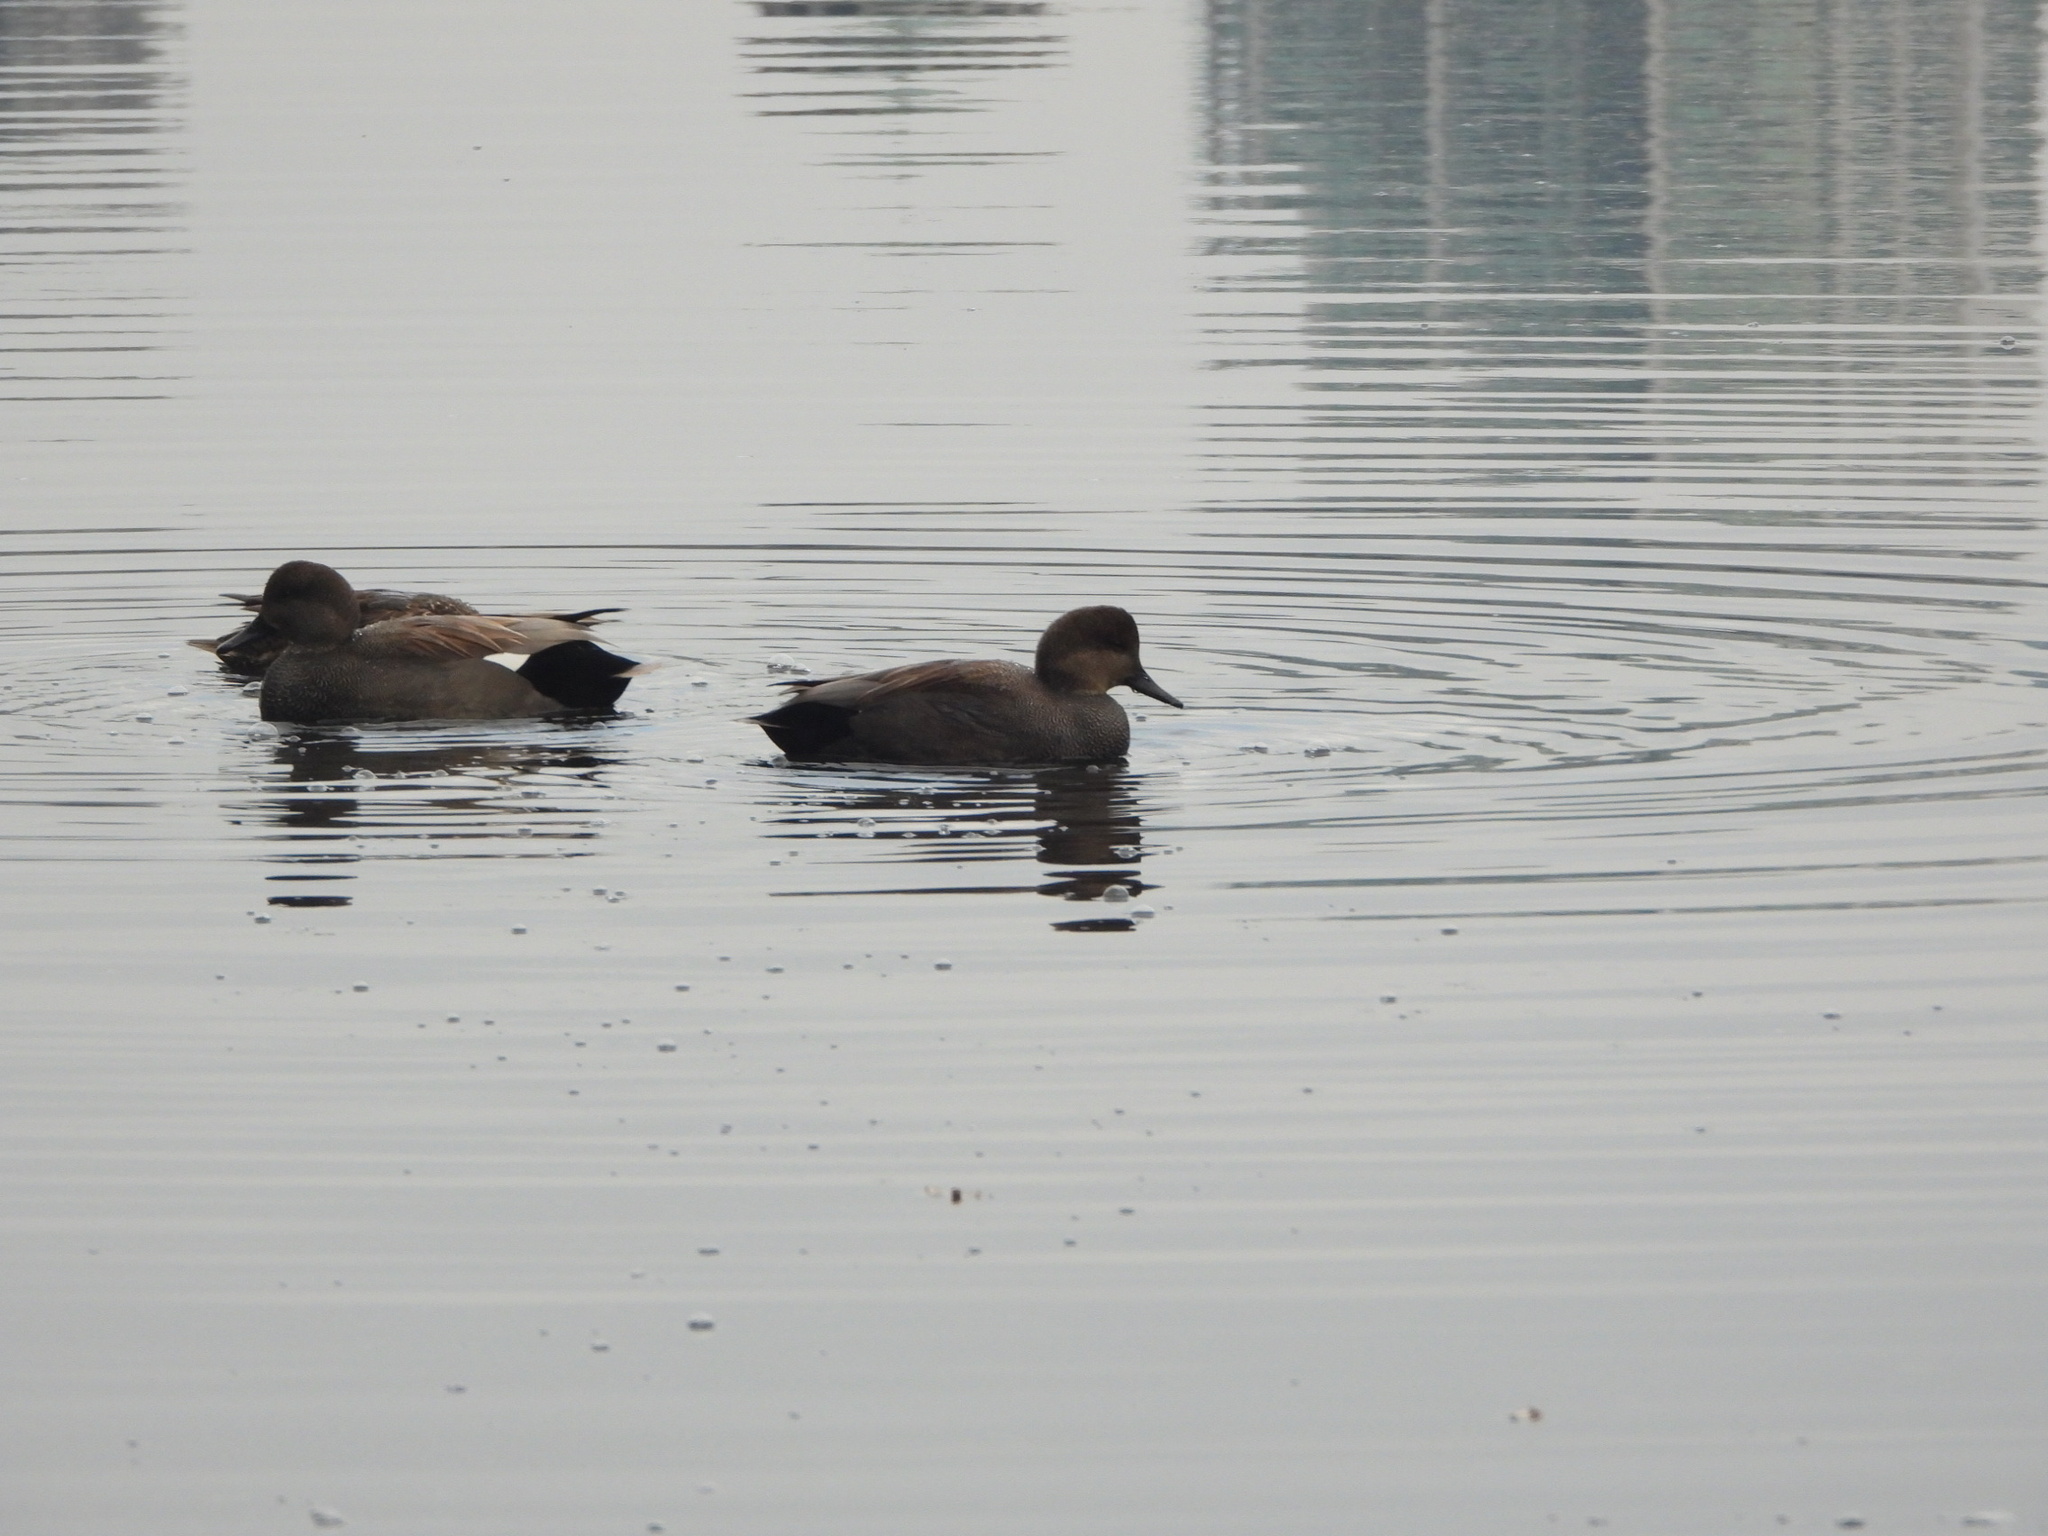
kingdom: Animalia
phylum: Chordata
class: Aves
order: Anseriformes
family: Anatidae
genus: Mareca
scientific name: Mareca strepera
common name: Gadwall
